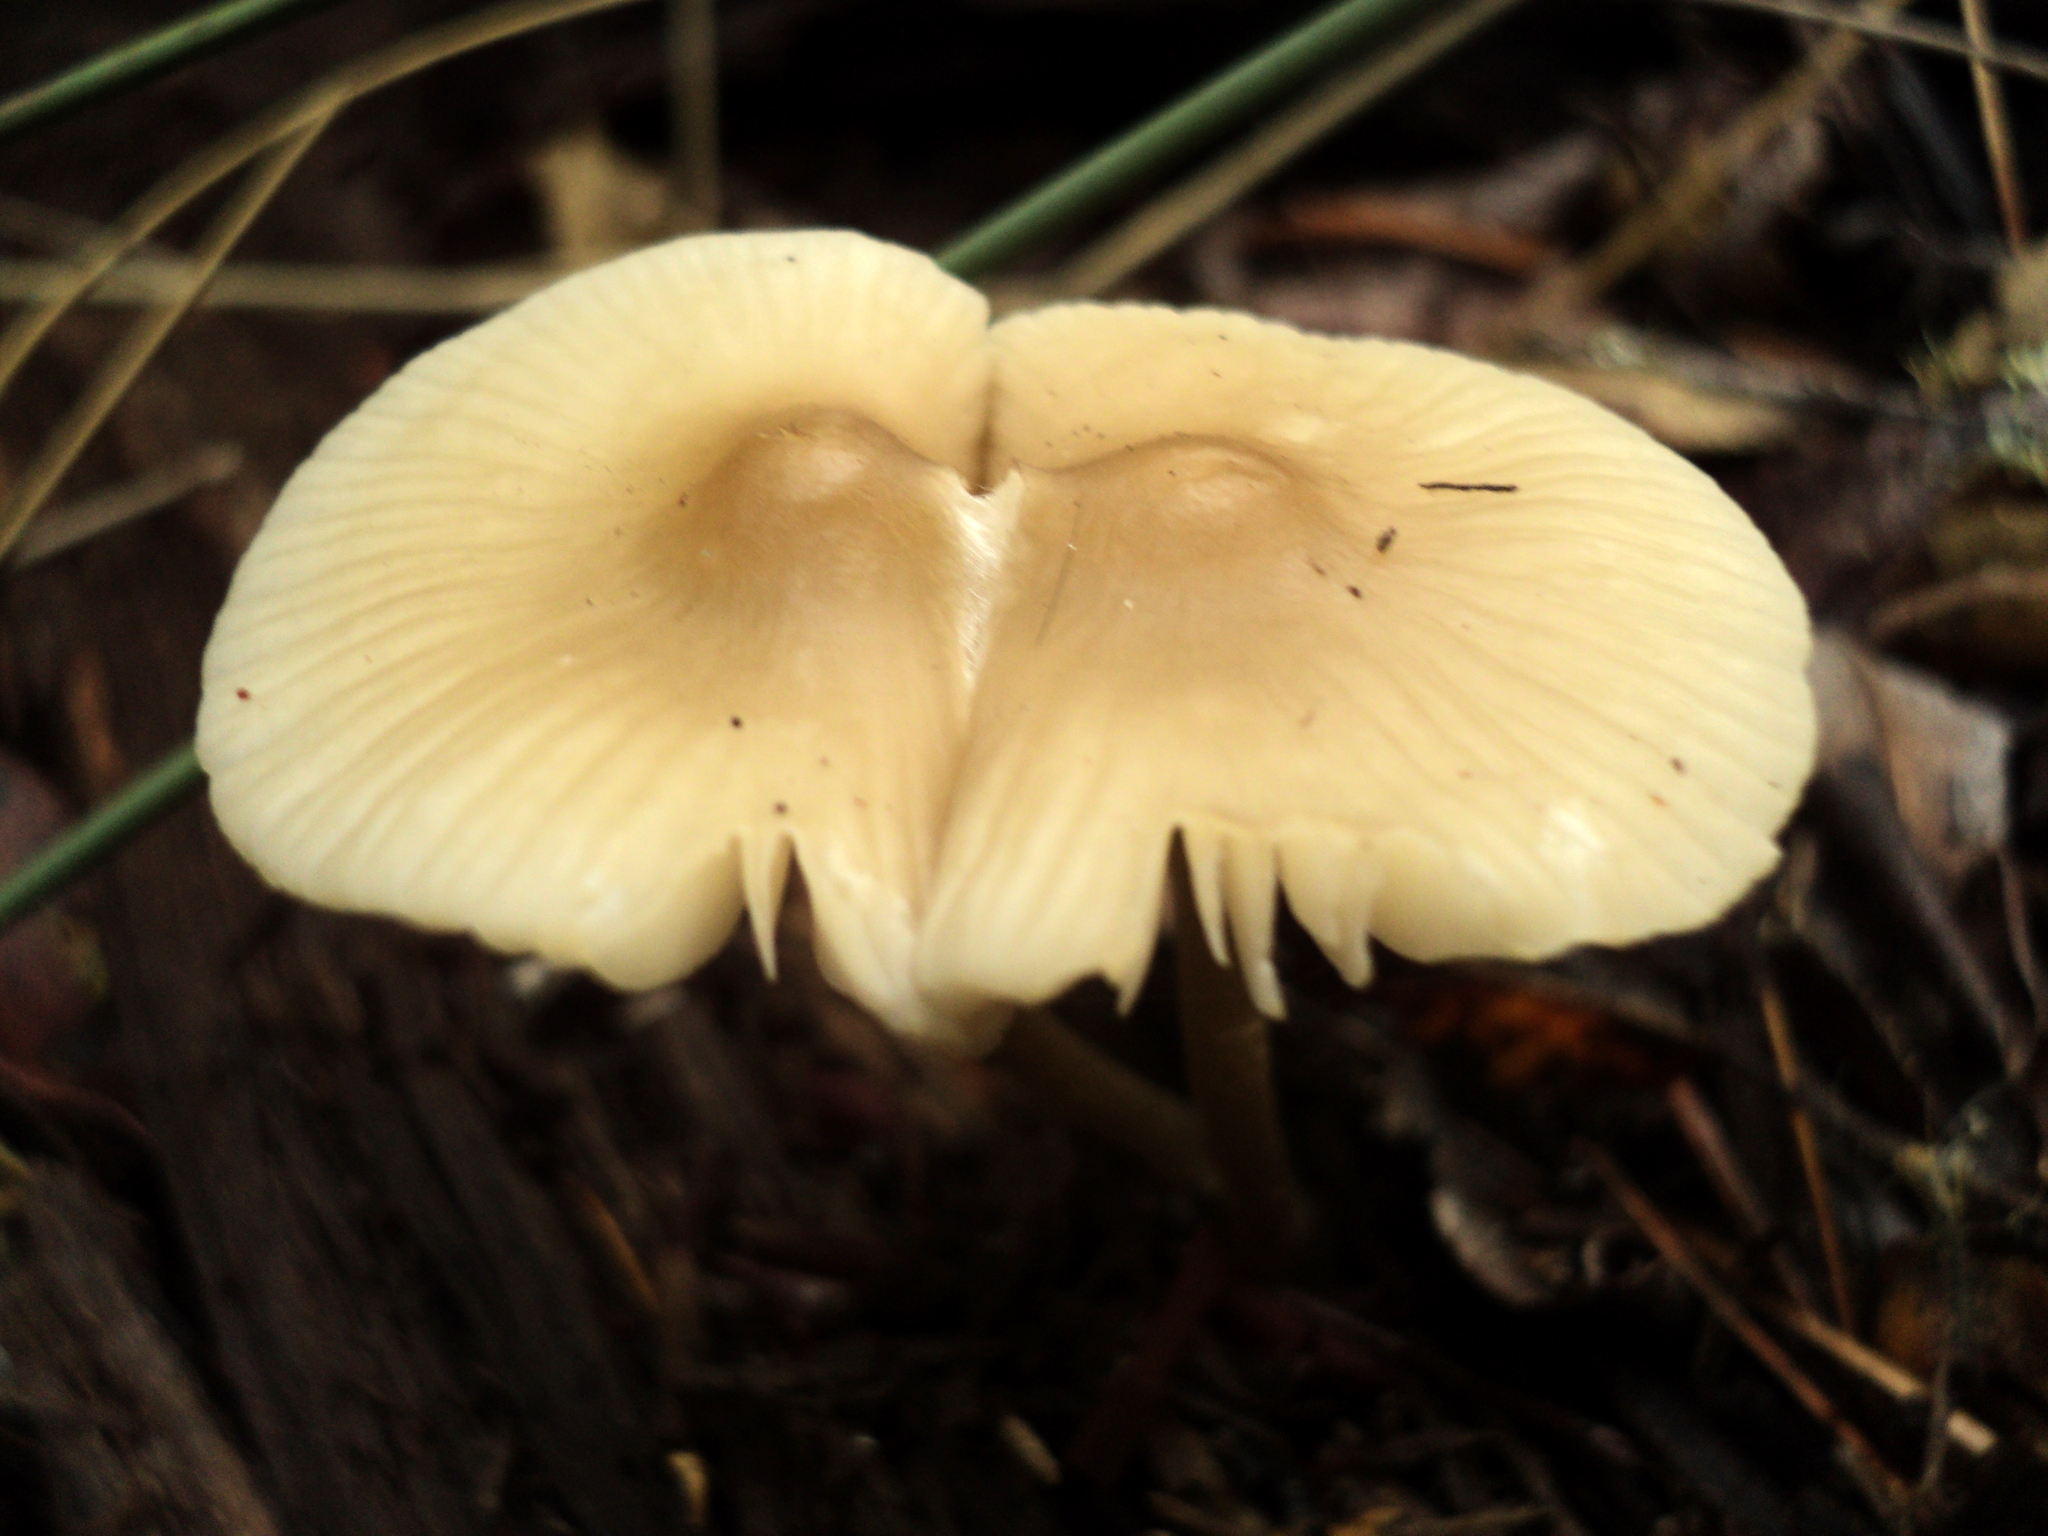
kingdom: Fungi
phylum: Basidiomycota
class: Agaricomycetes
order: Agaricales
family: Mycenaceae
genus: Mycena
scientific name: Mycena galericulata
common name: Bonnet mycena
